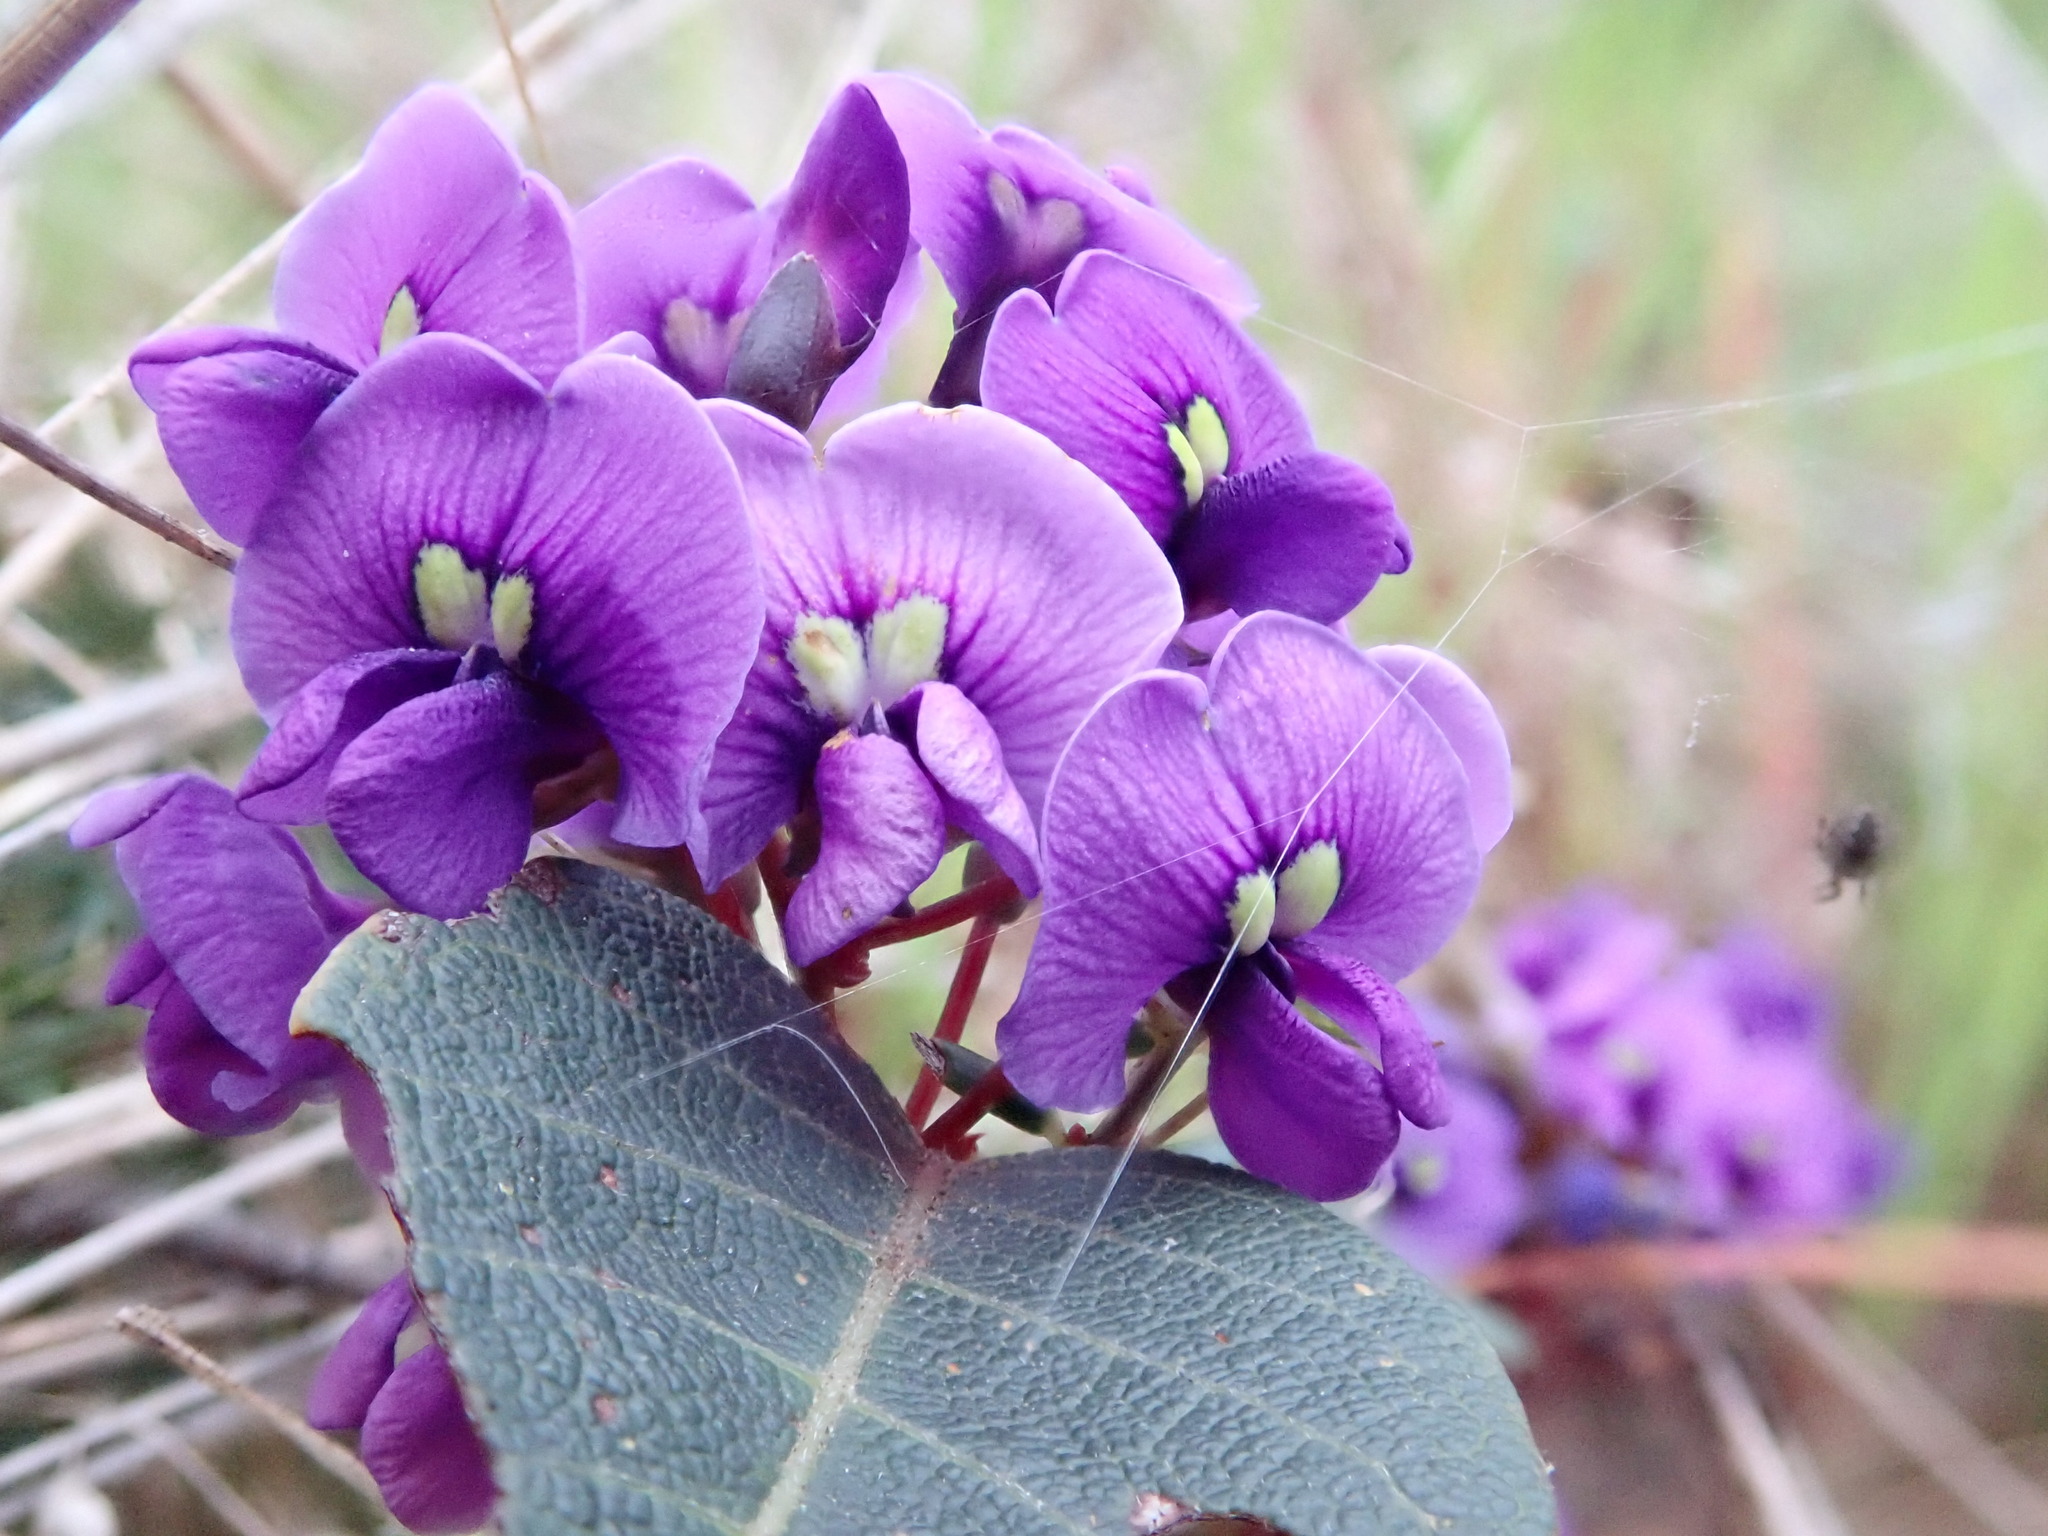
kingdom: Plantae
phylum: Tracheophyta
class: Magnoliopsida
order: Fabales
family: Fabaceae
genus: Hardenbergia
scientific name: Hardenbergia violacea
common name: Coral-pea
